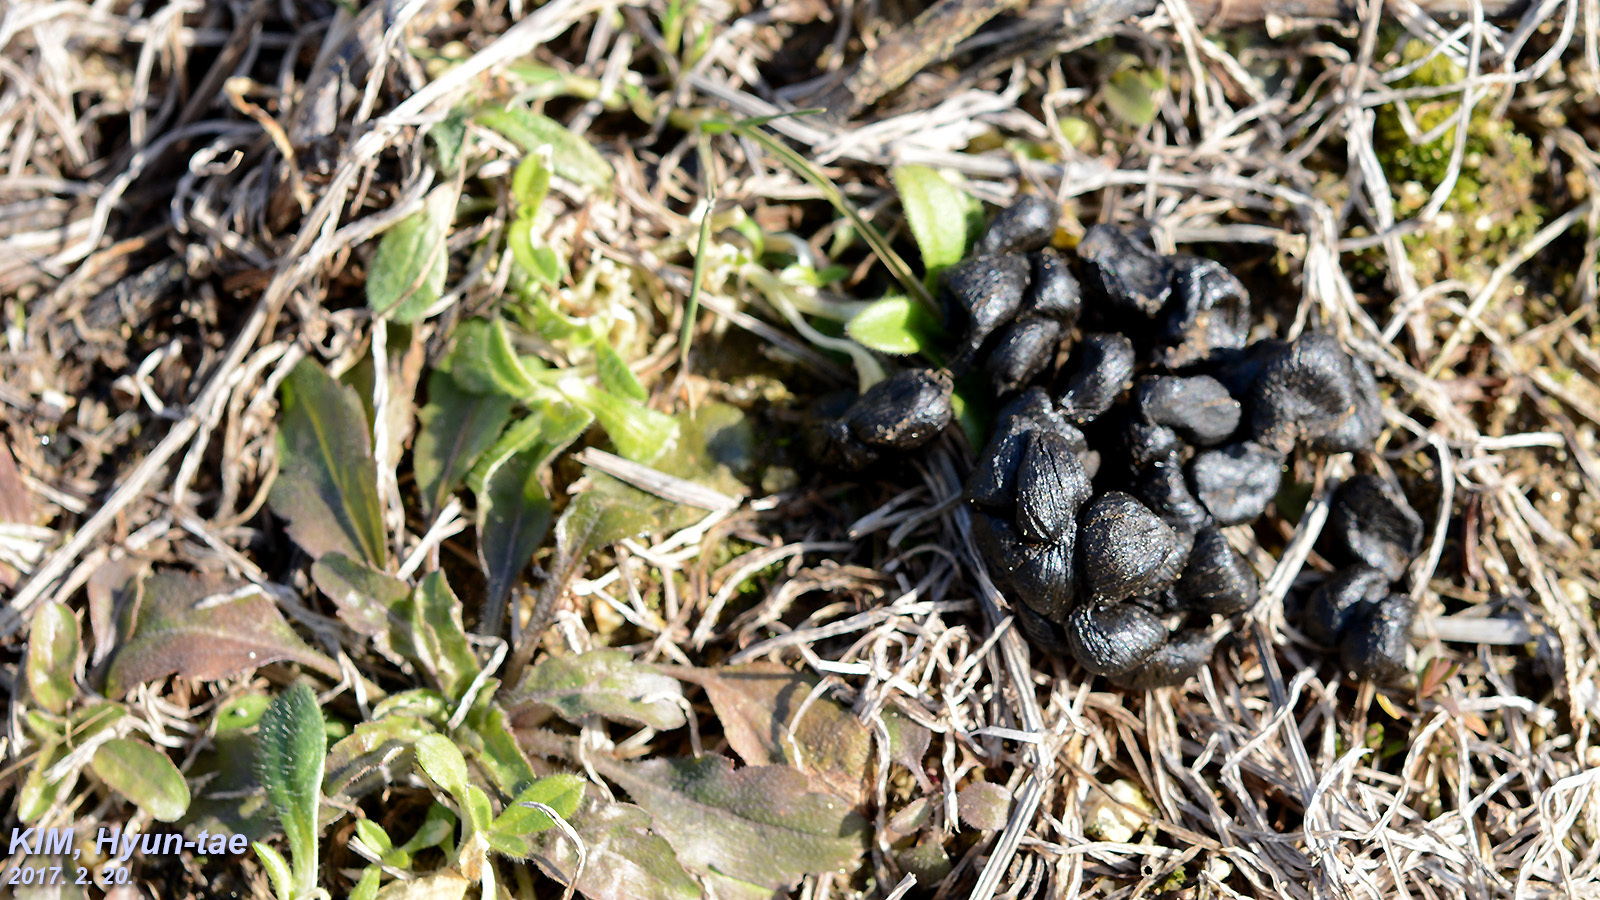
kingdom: Animalia
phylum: Chordata
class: Mammalia
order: Artiodactyla
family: Cervidae
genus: Hydropotes
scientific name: Hydropotes inermis
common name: Chinese water deer
